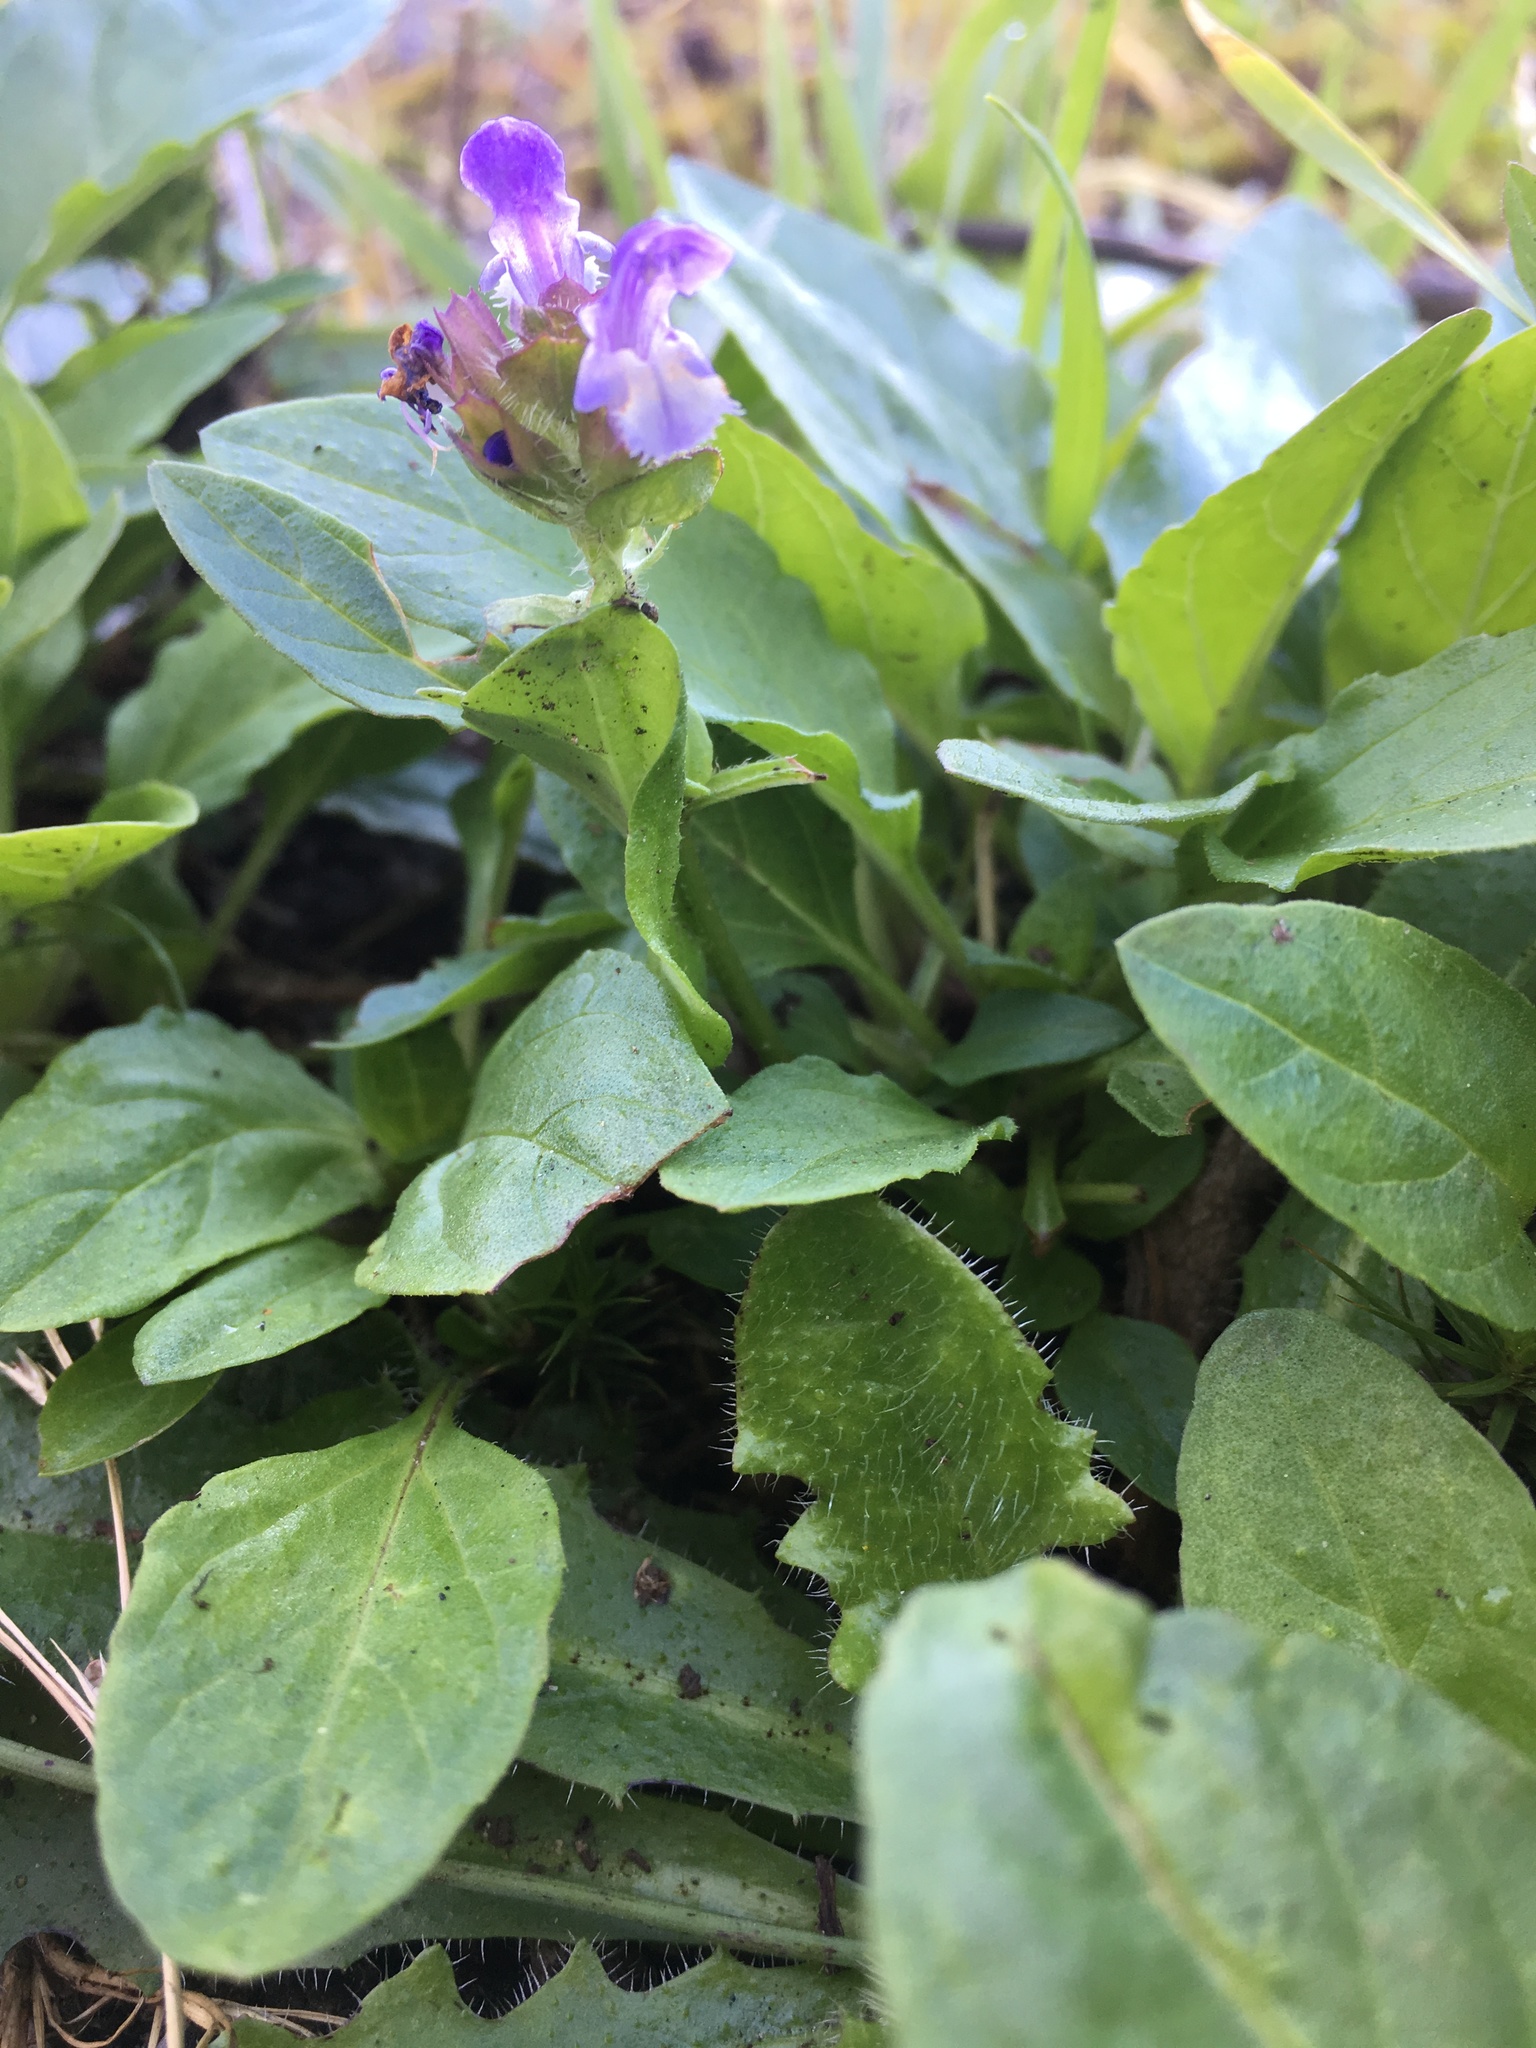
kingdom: Plantae
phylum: Tracheophyta
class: Magnoliopsida
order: Lamiales
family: Lamiaceae
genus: Prunella
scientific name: Prunella vulgaris
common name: Heal-all
